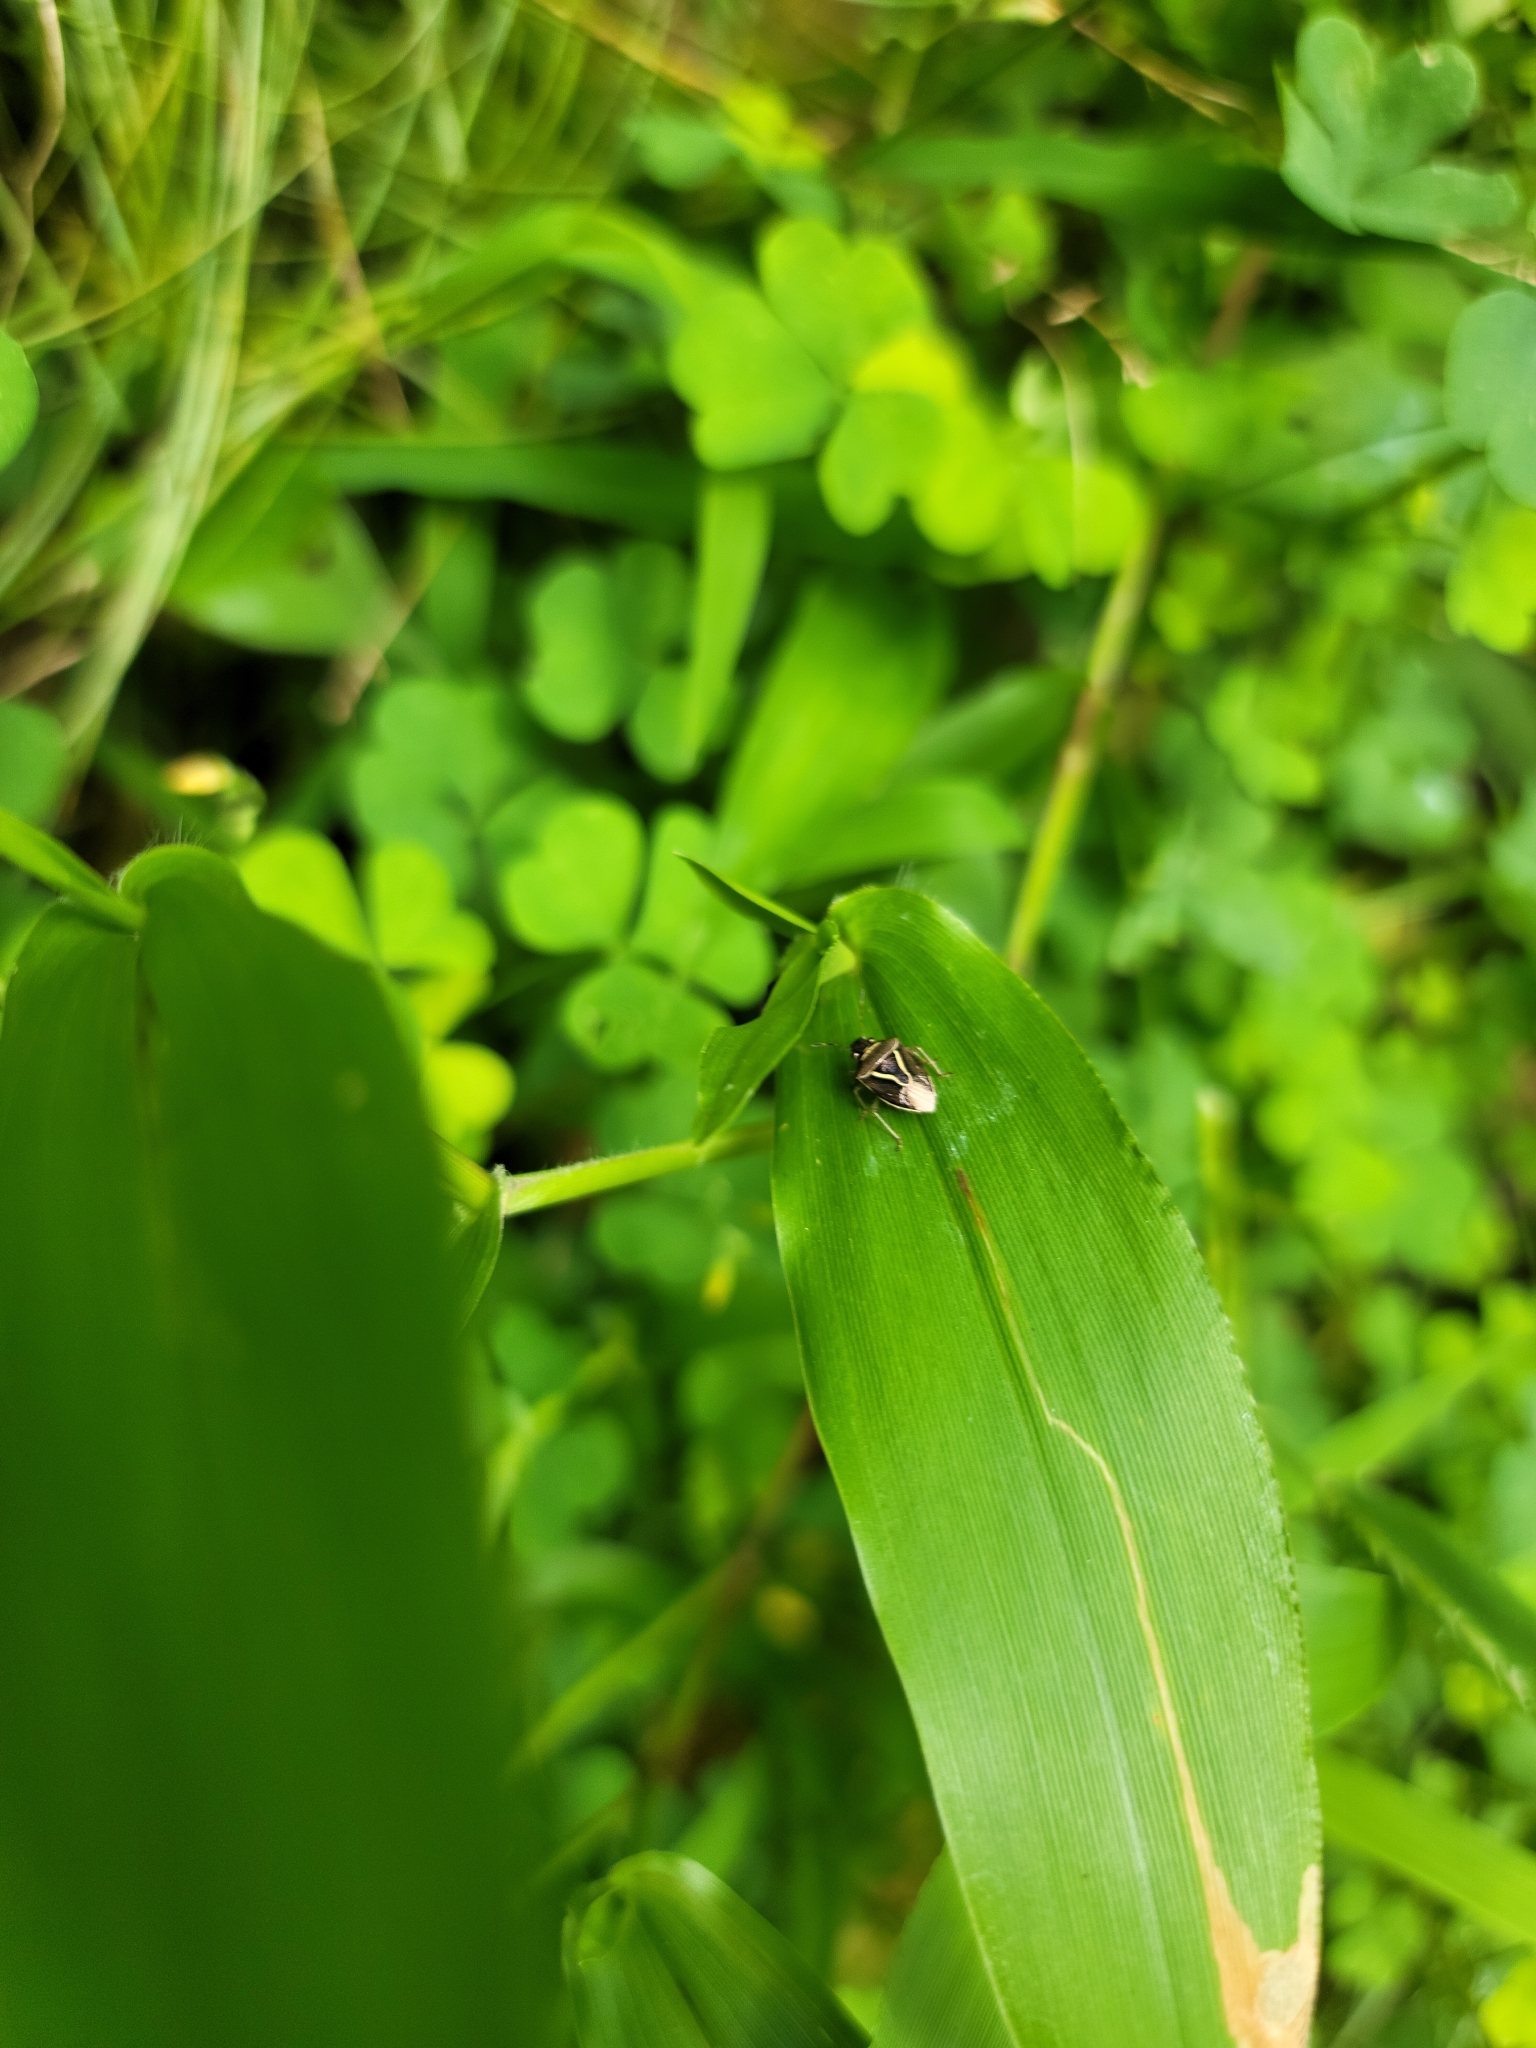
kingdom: Animalia
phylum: Arthropoda
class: Insecta
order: Hemiptera
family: Pentatomidae
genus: Mormidea
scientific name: Mormidea lugens
